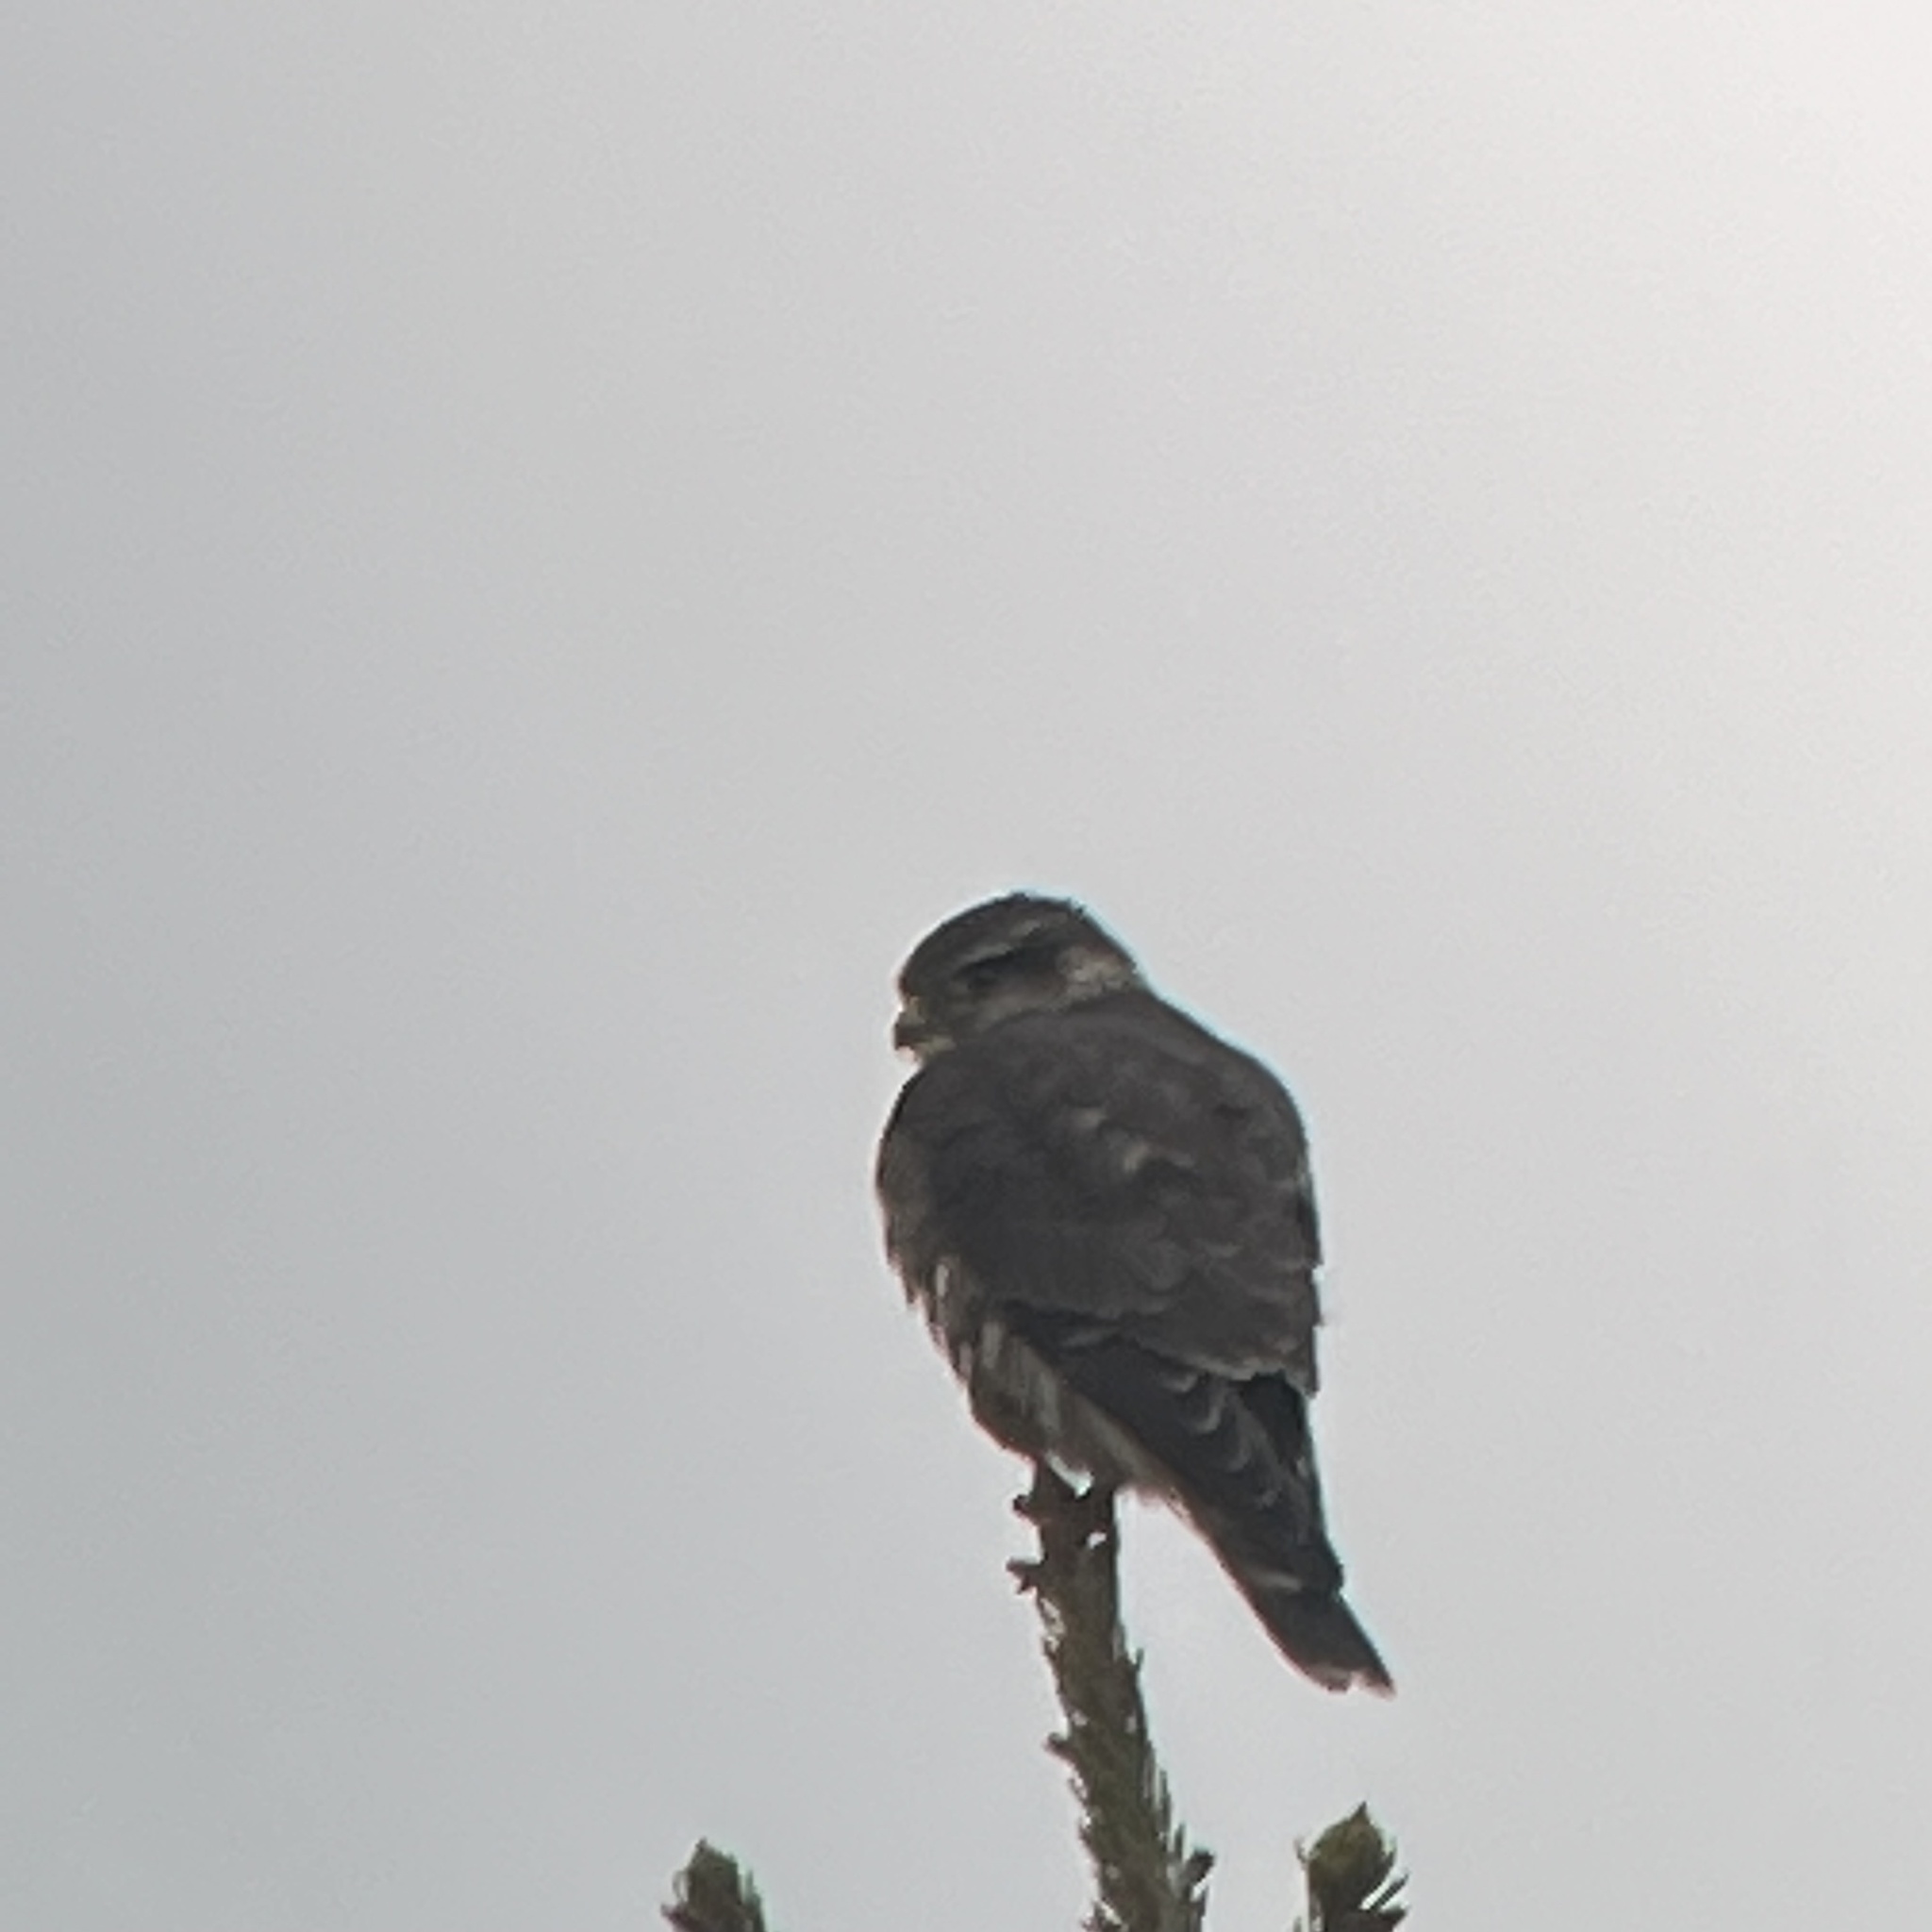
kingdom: Animalia
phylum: Chordata
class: Aves
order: Falconiformes
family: Falconidae
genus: Falco
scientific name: Falco columbarius
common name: Merlin
